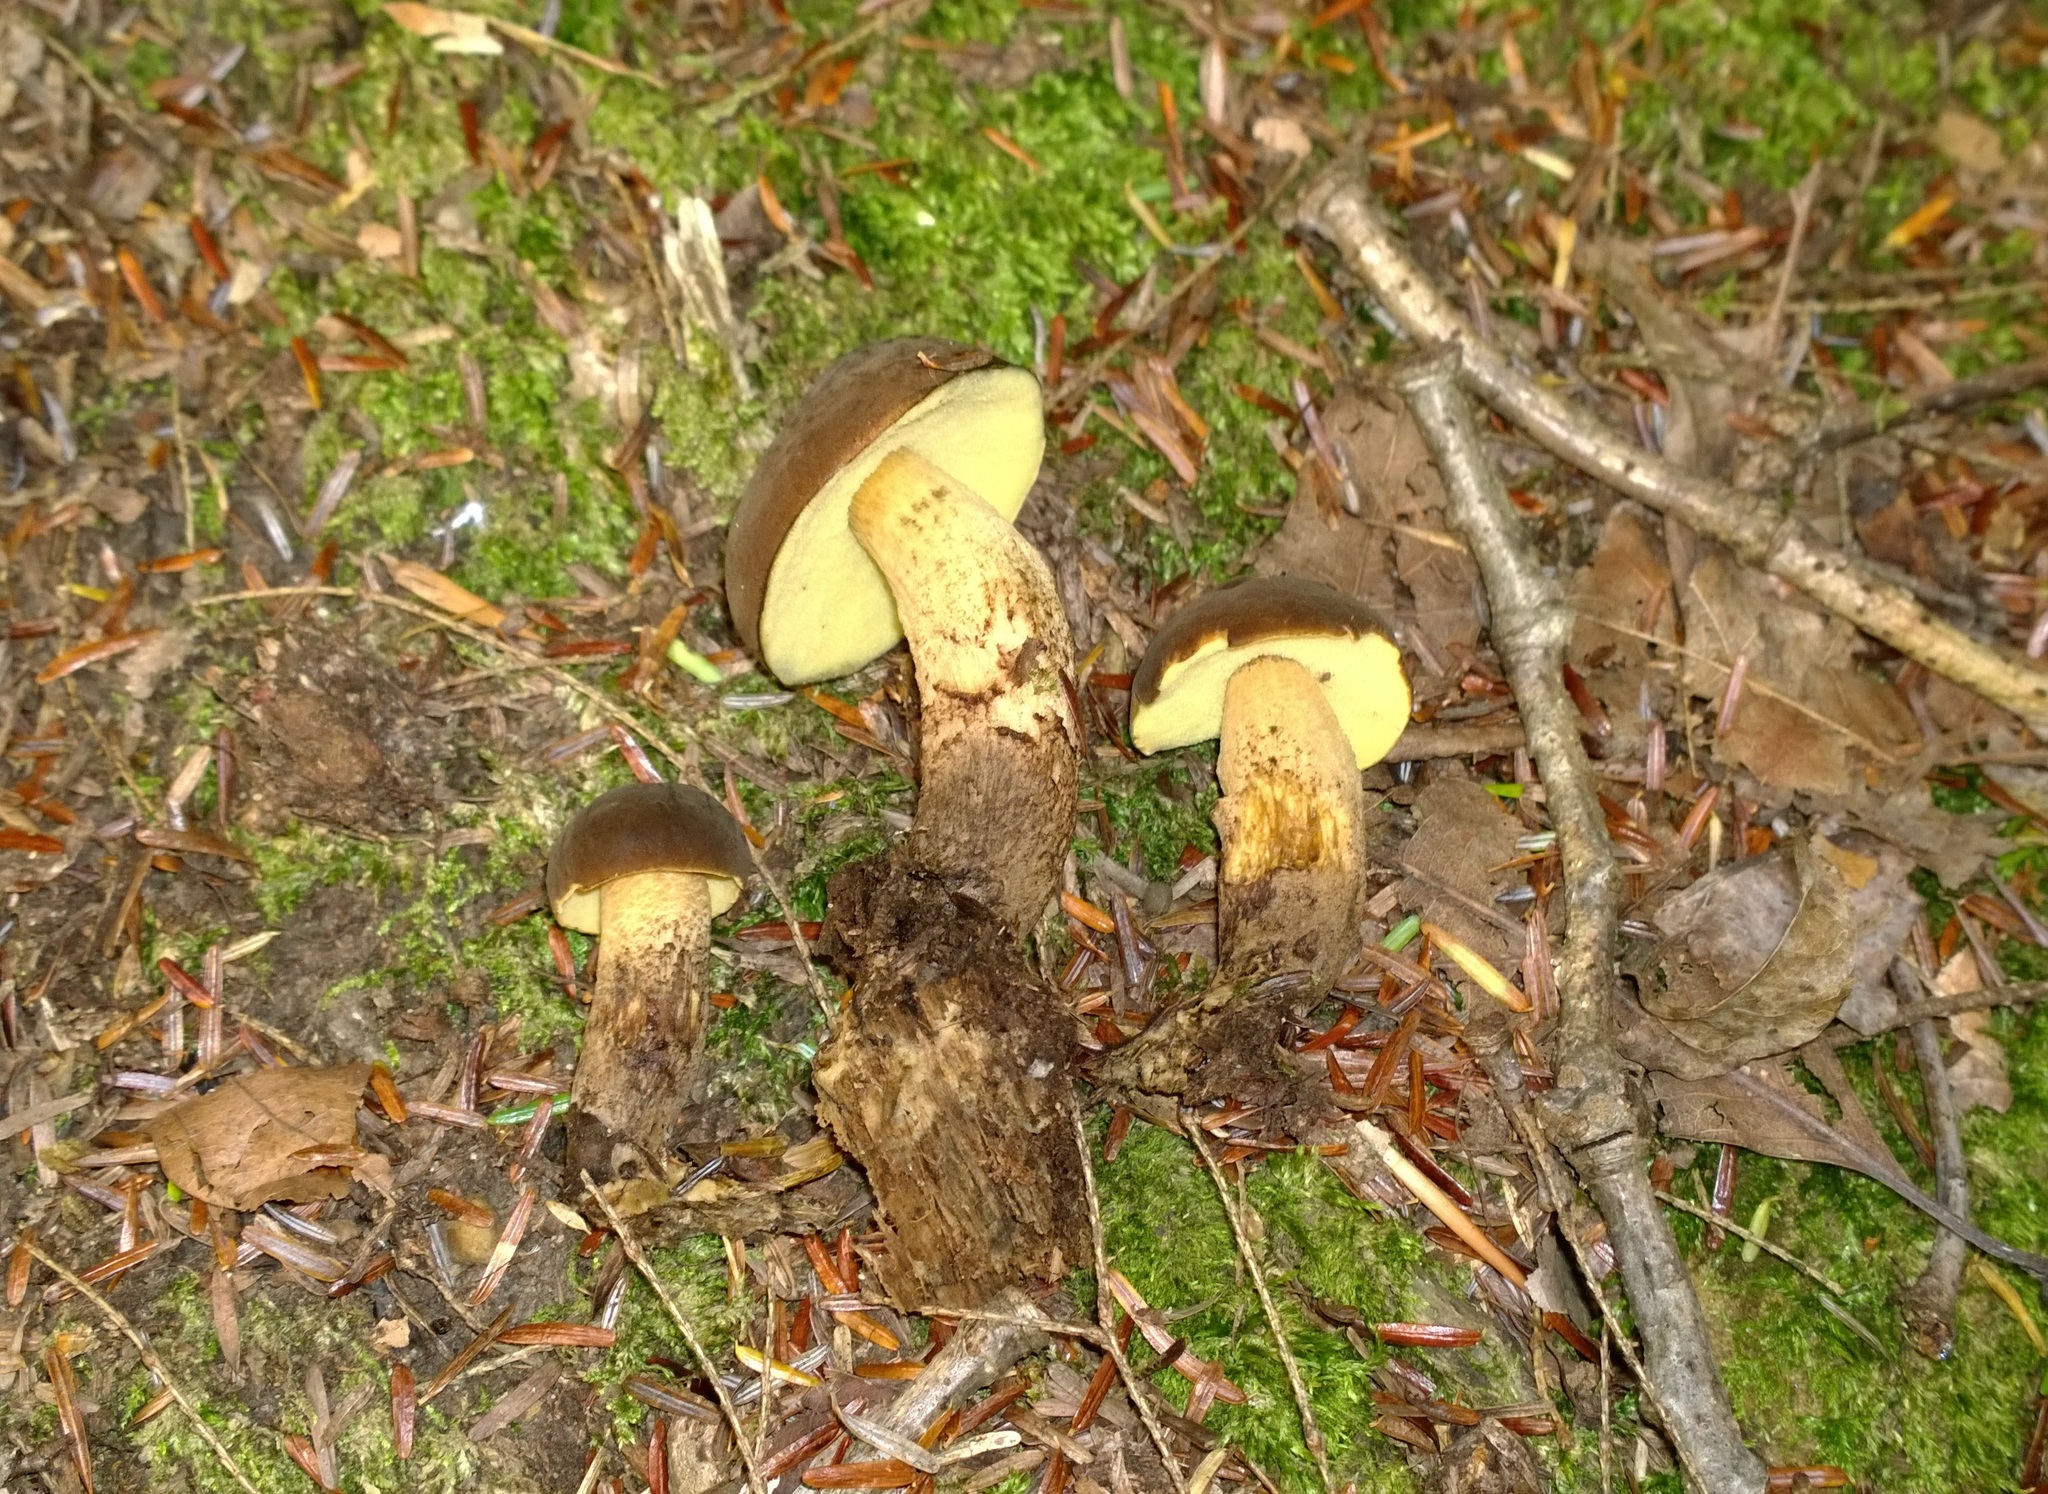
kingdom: Fungi
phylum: Basidiomycota
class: Agaricomycetes
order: Boletales
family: Boletaceae
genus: Boletellus
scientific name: Boletellus chrysenteroides
